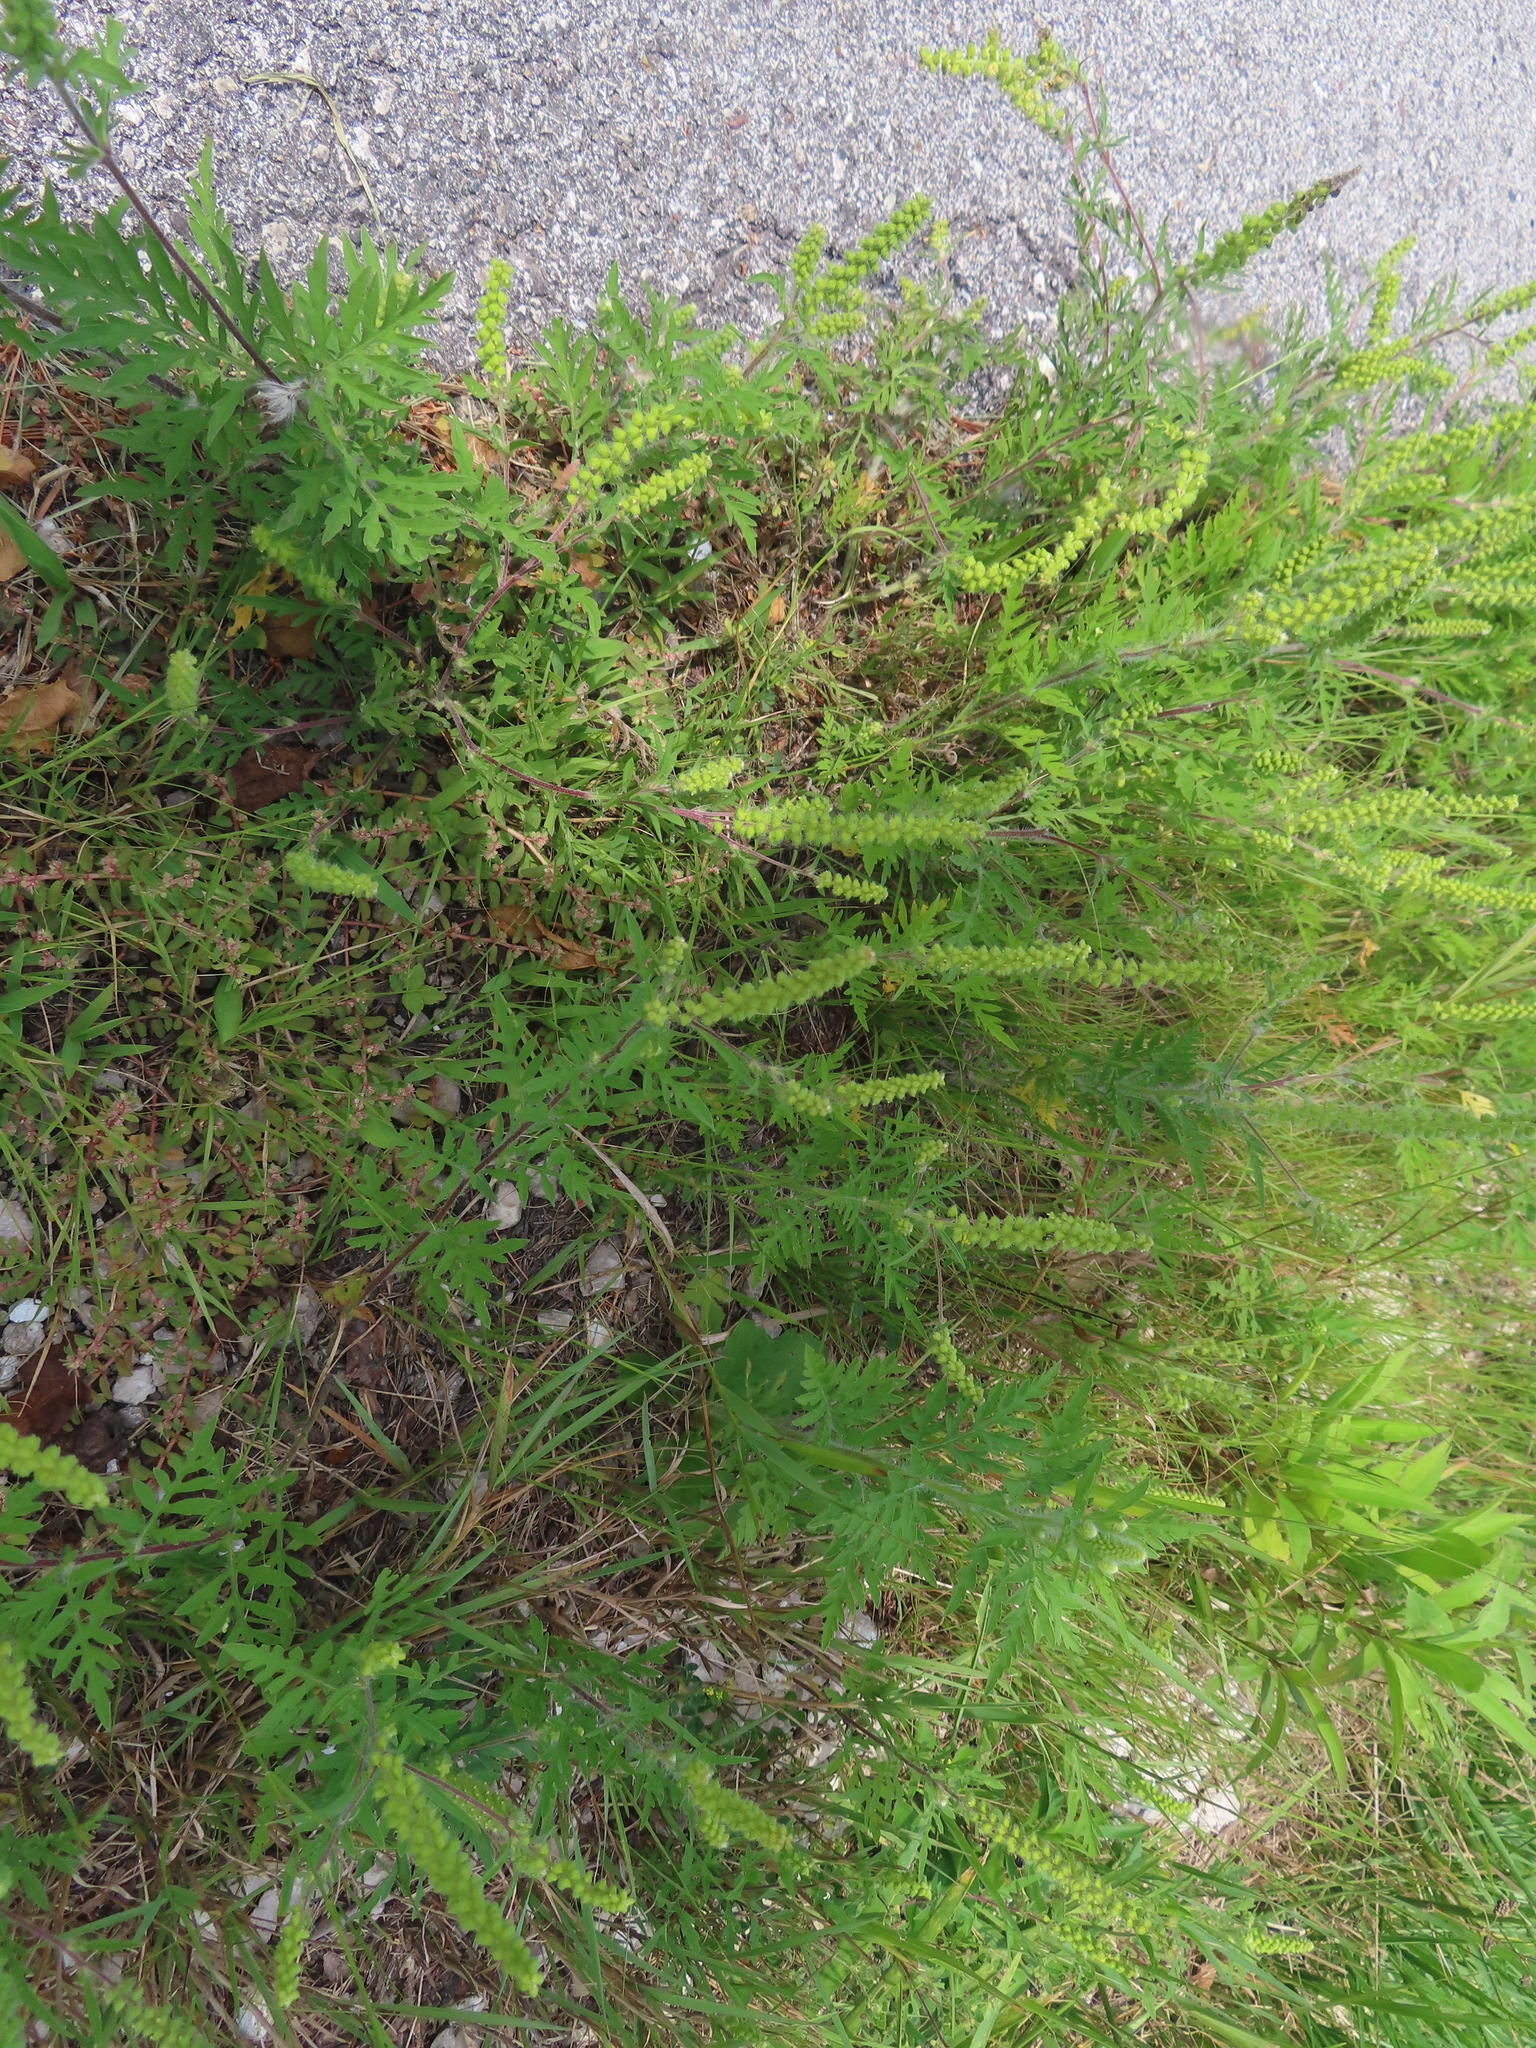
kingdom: Plantae
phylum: Tracheophyta
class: Magnoliopsida
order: Asterales
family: Asteraceae
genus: Ambrosia
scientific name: Ambrosia artemisiifolia
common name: Annual ragweed
